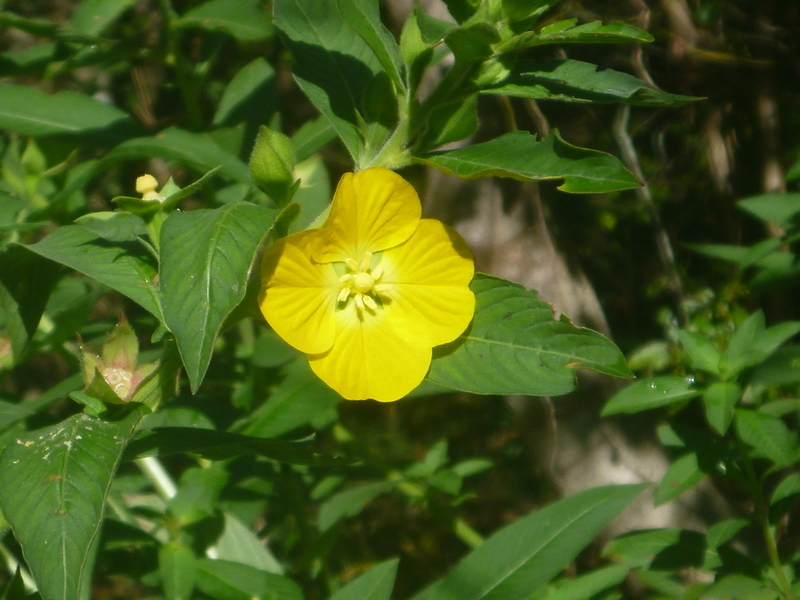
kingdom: Plantae
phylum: Tracheophyta
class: Magnoliopsida
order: Myrtales
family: Onagraceae
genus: Ludwigia
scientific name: Ludwigia peruviana
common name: Peruvian primrose-willow
